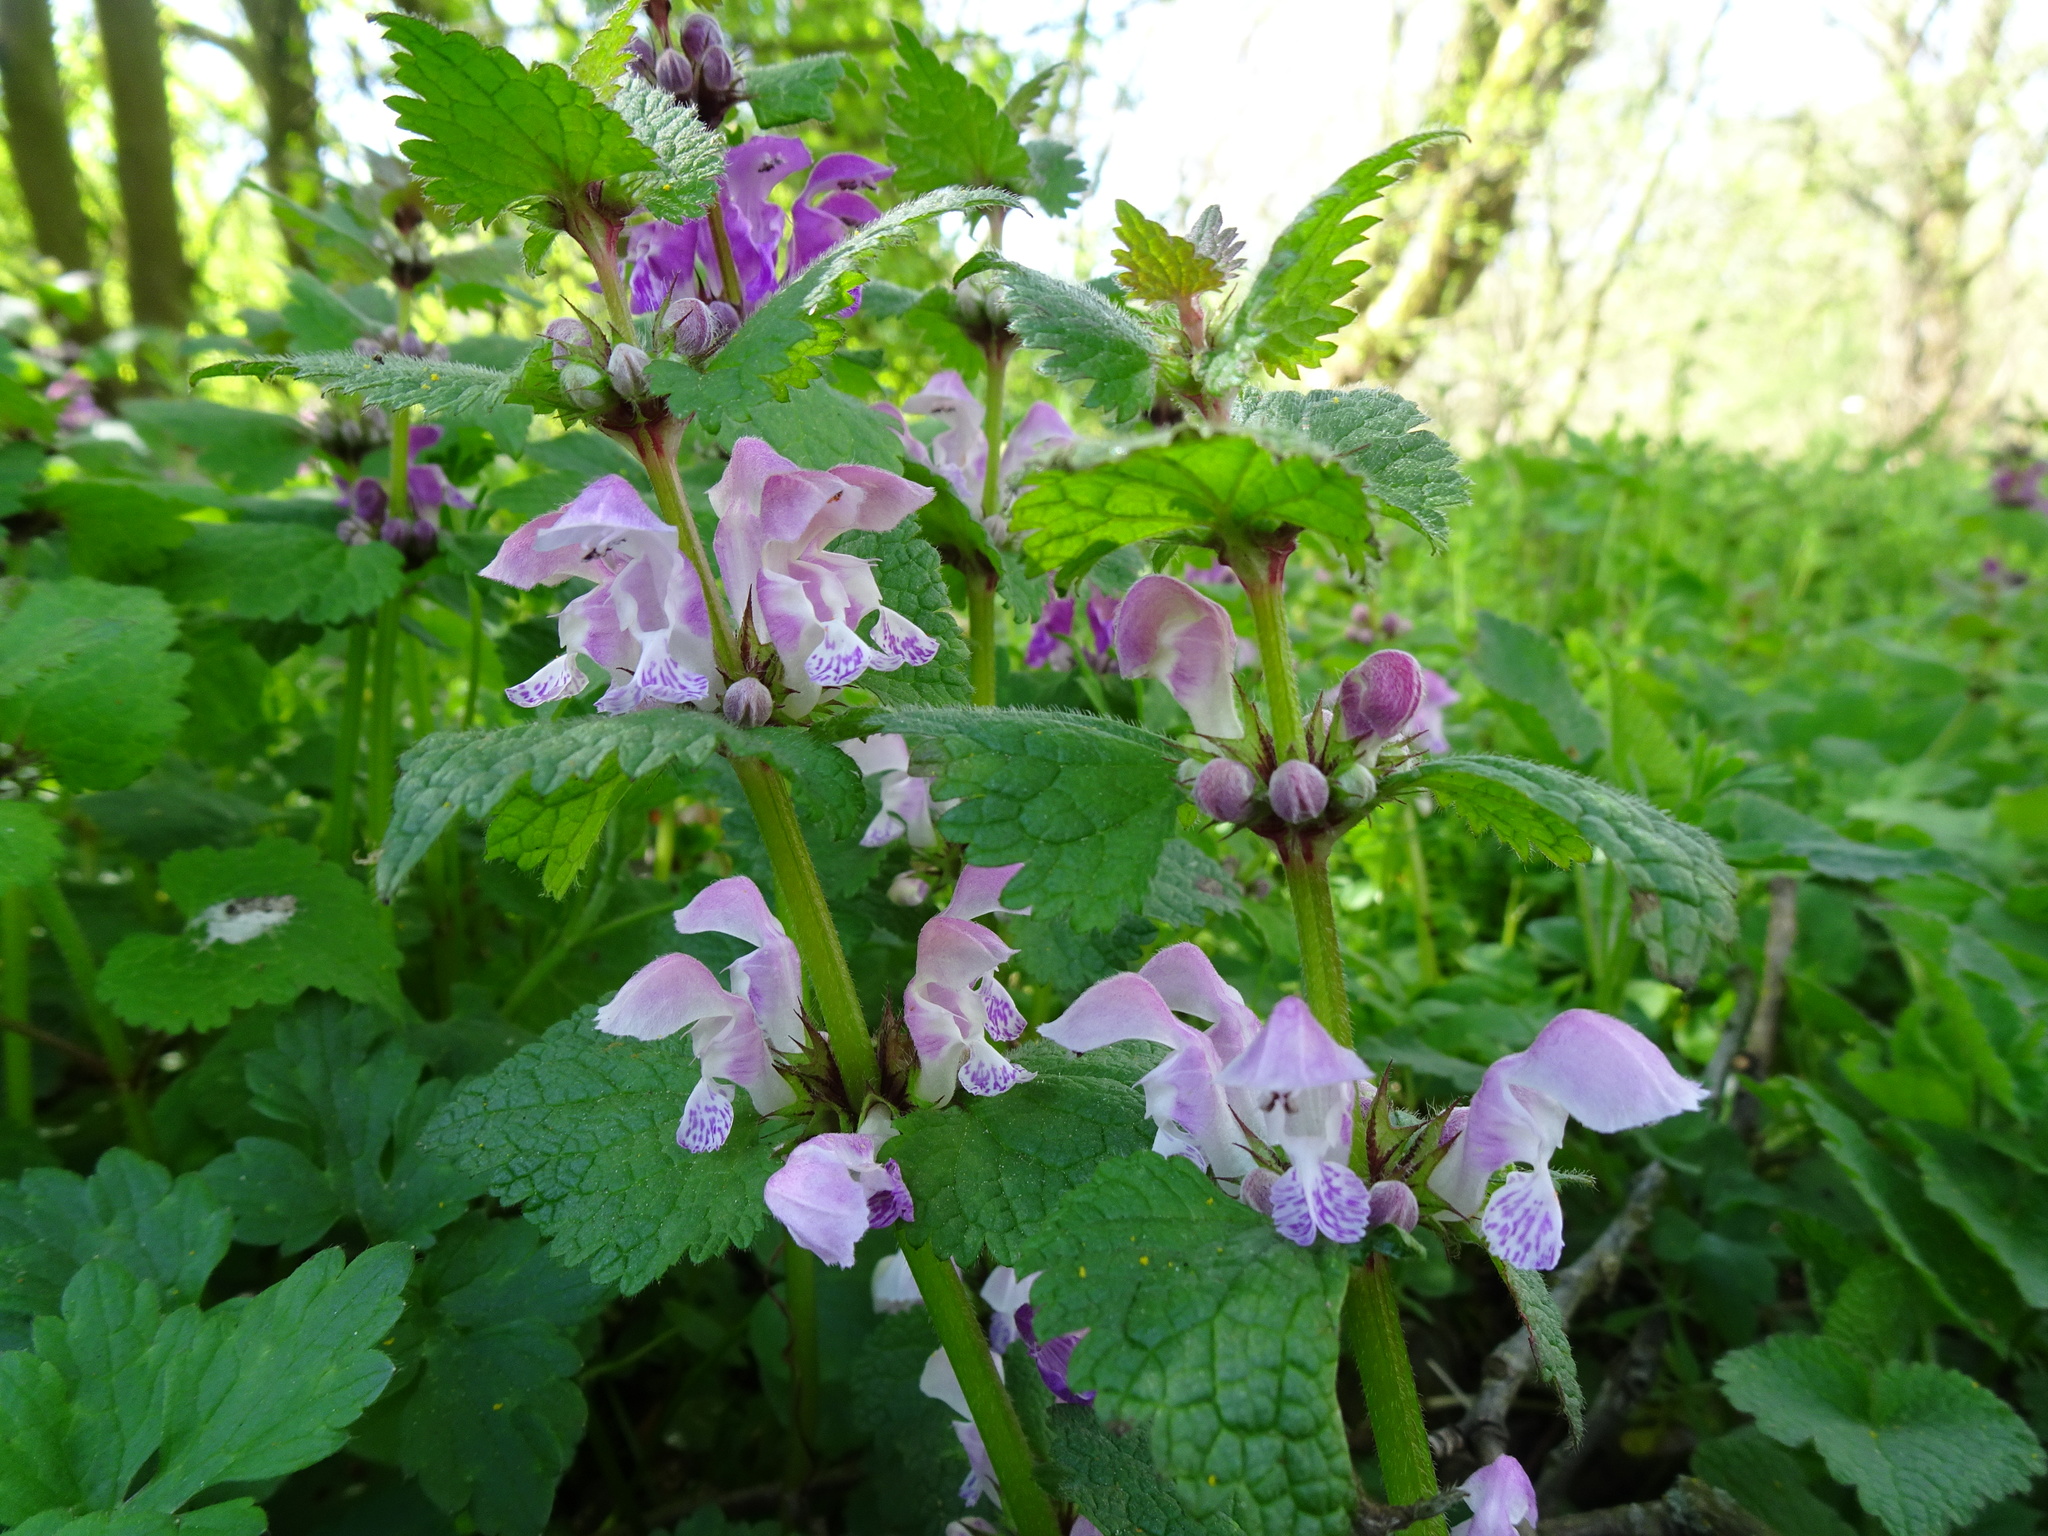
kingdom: Plantae
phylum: Tracheophyta
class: Magnoliopsida
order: Lamiales
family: Lamiaceae
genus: Lamium
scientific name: Lamium maculatum
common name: Spotted dead-nettle
